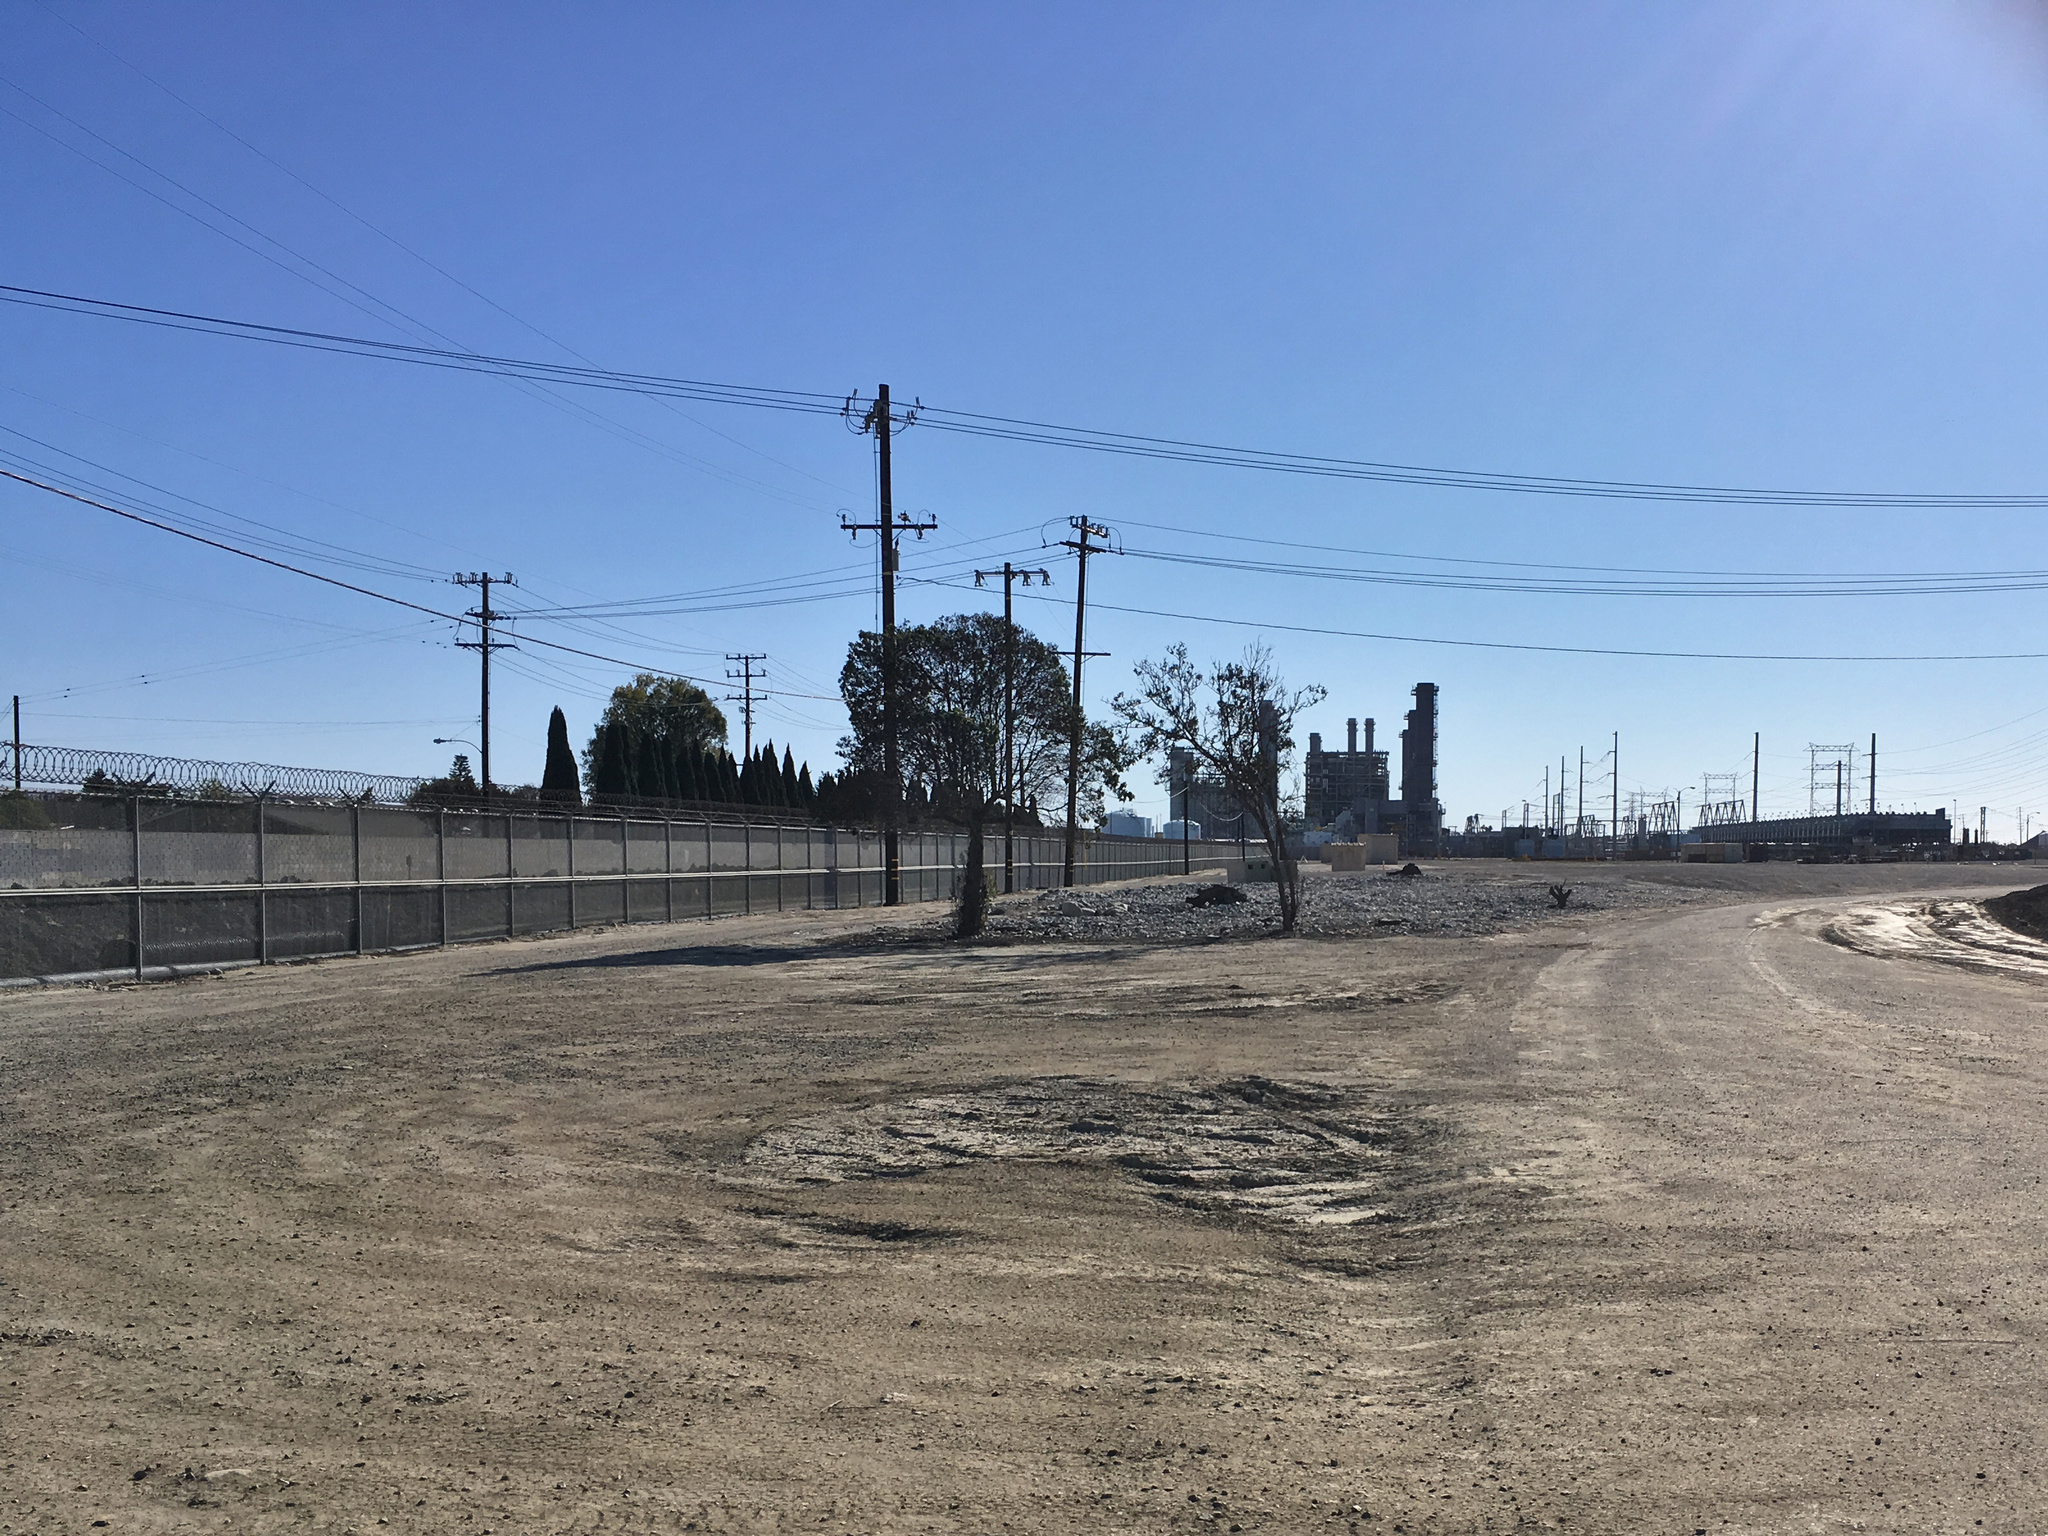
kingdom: Plantae
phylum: Tracheophyta
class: Magnoliopsida
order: Lamiales
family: Scrophulariaceae
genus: Myoporum
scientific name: Myoporum laetum
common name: Ngaio tree
